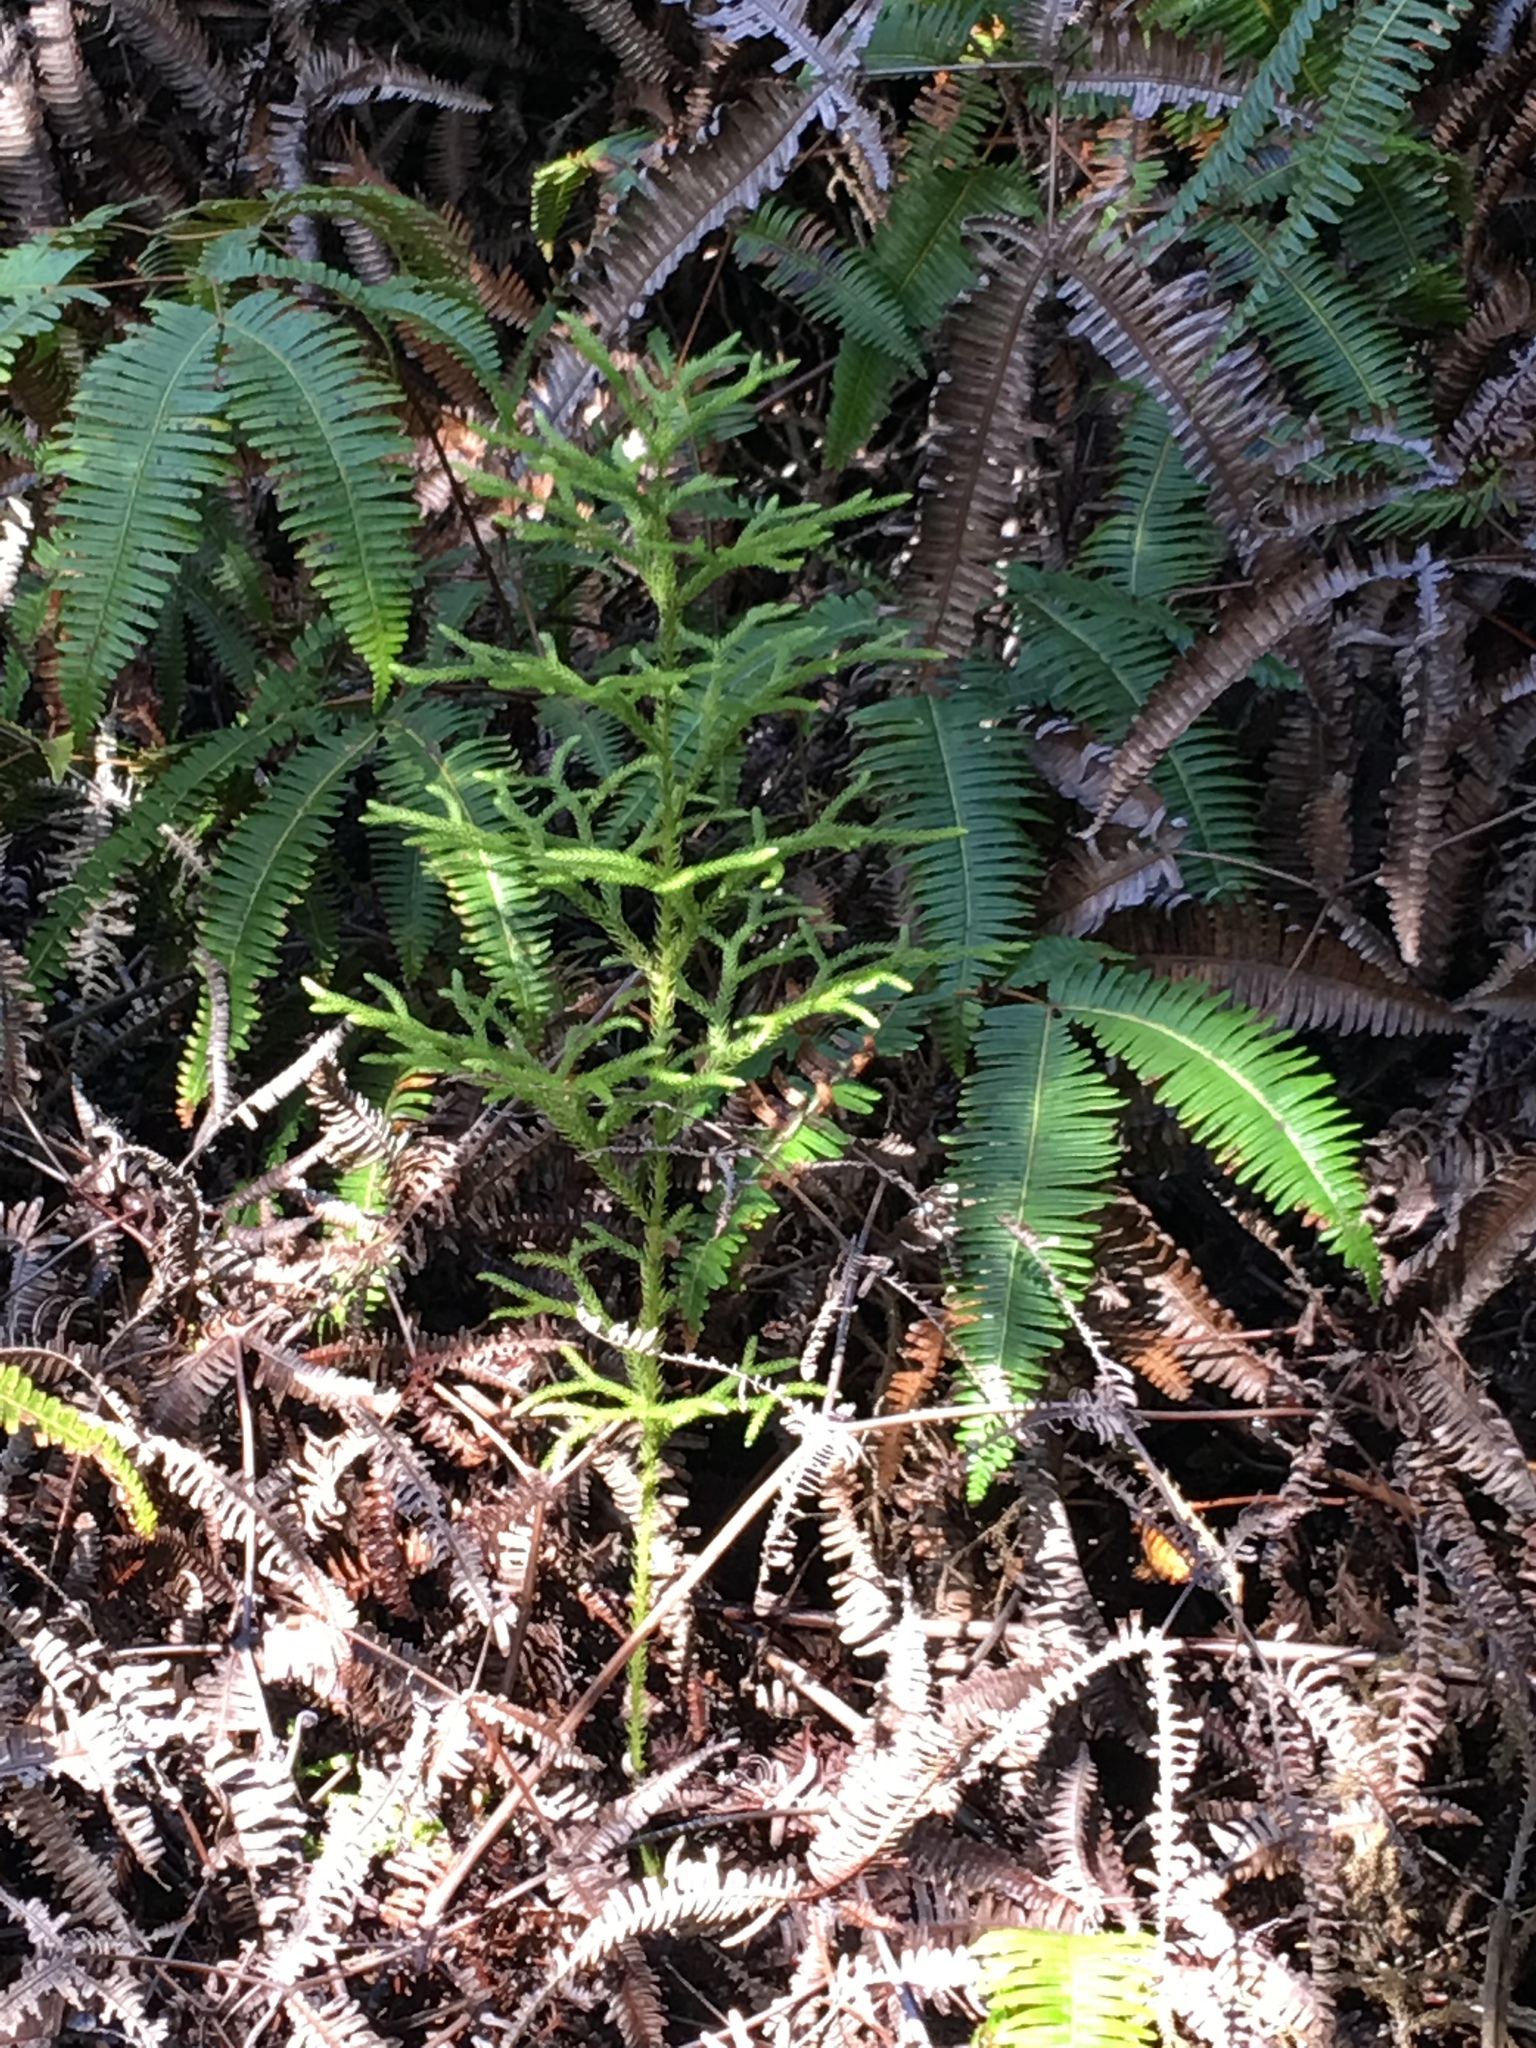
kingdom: Plantae
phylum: Tracheophyta
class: Lycopodiopsida
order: Lycopodiales
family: Lycopodiaceae
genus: Palhinhaea
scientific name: Palhinhaea cernua
